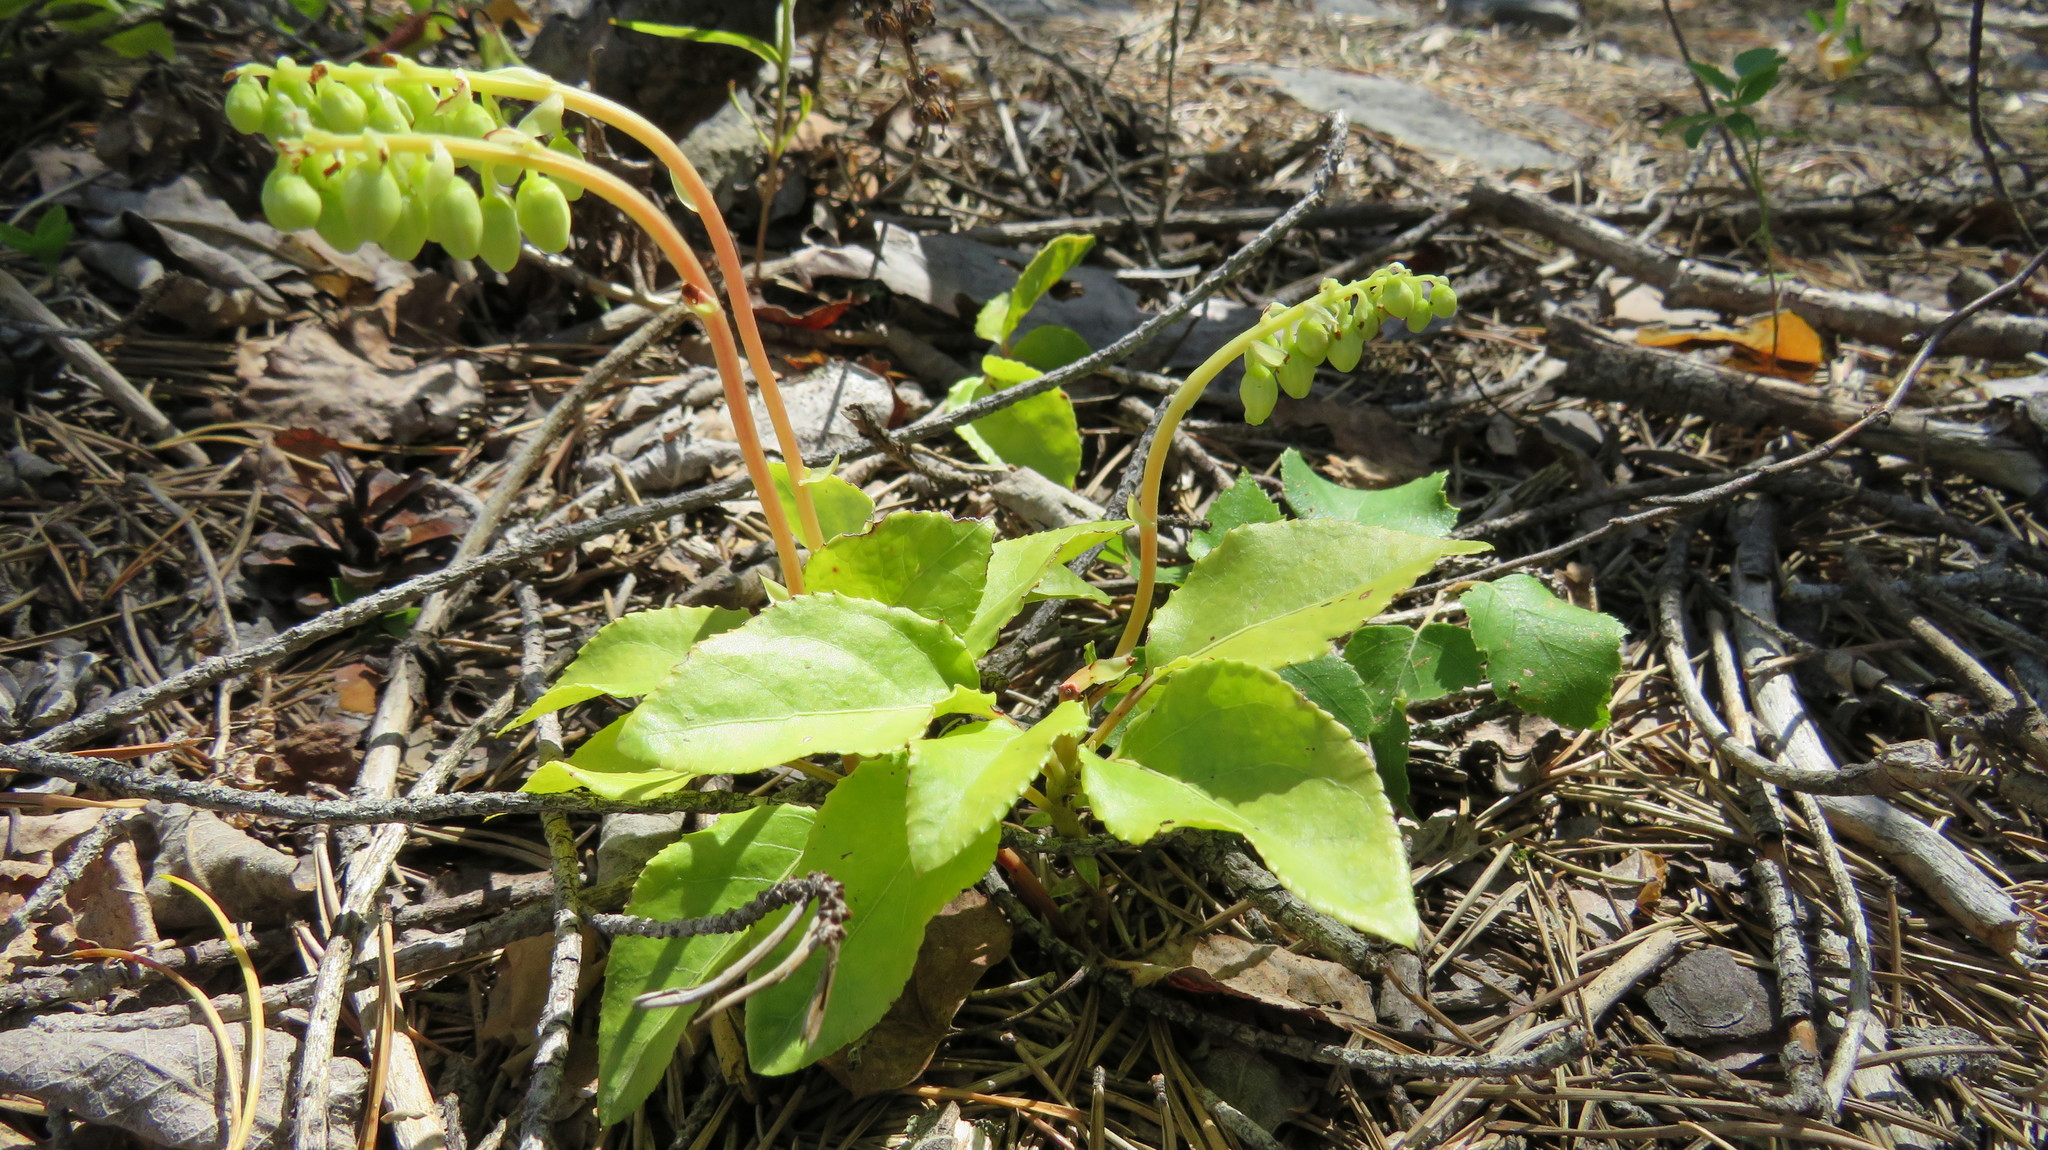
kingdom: Plantae
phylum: Tracheophyta
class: Magnoliopsida
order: Ericales
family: Ericaceae
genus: Orthilia
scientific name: Orthilia secunda
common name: One-sided orthilia
